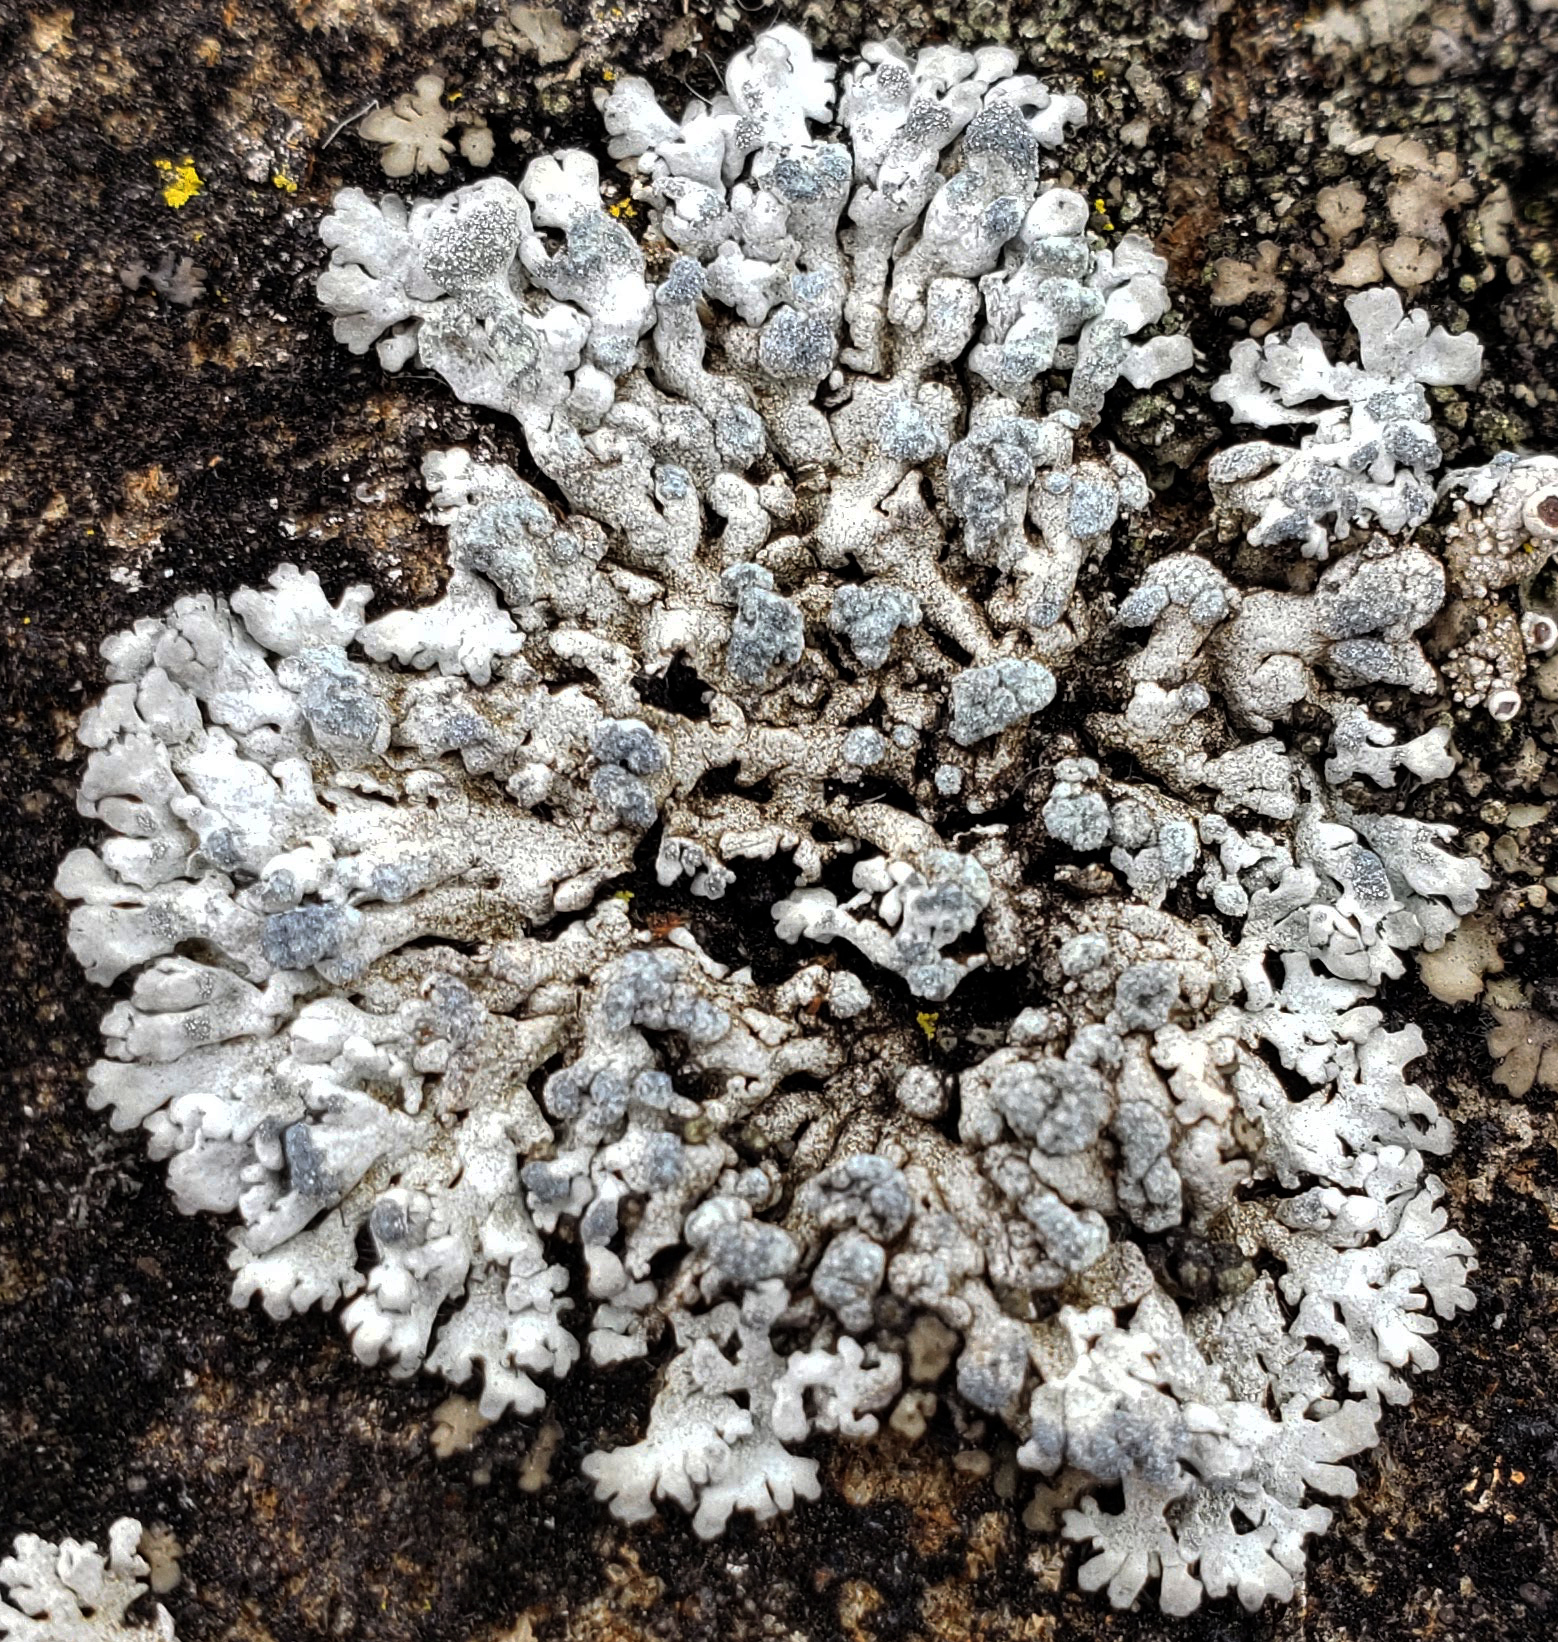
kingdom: Fungi
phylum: Ascomycota
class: Lecanoromycetes
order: Caliciales
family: Physciaceae
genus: Physcia
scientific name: Physcia caesia
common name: Blue-gray rosette lichen
